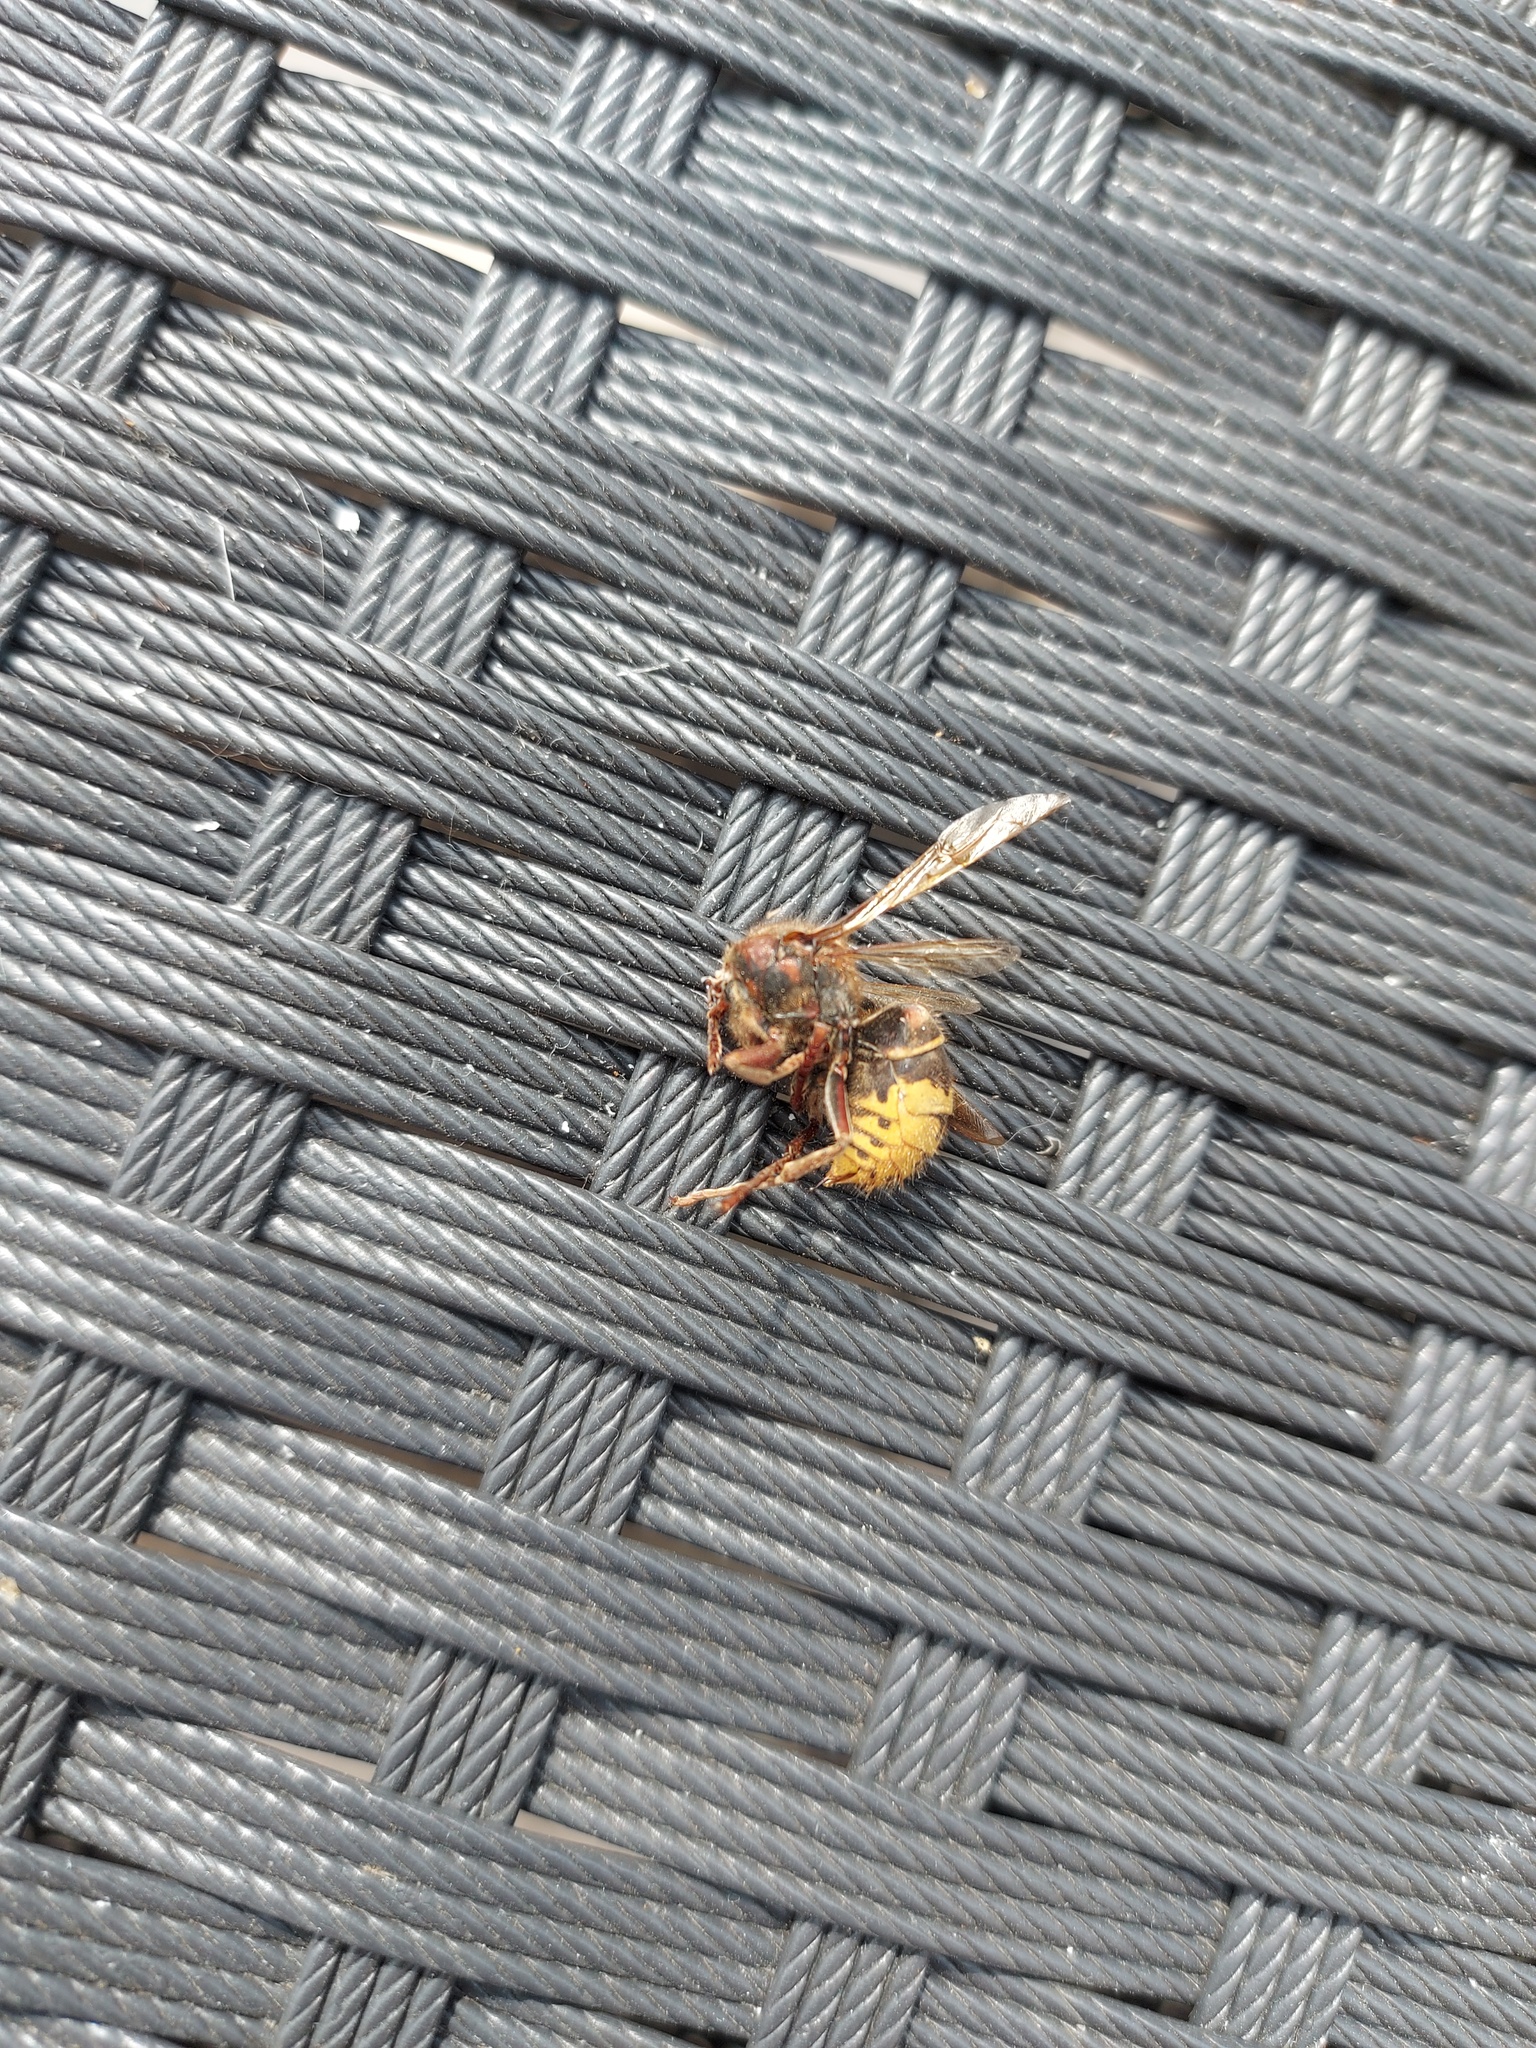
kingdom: Animalia
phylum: Arthropoda
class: Insecta
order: Hymenoptera
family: Vespidae
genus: Vespa
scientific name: Vespa crabro
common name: Hornet
